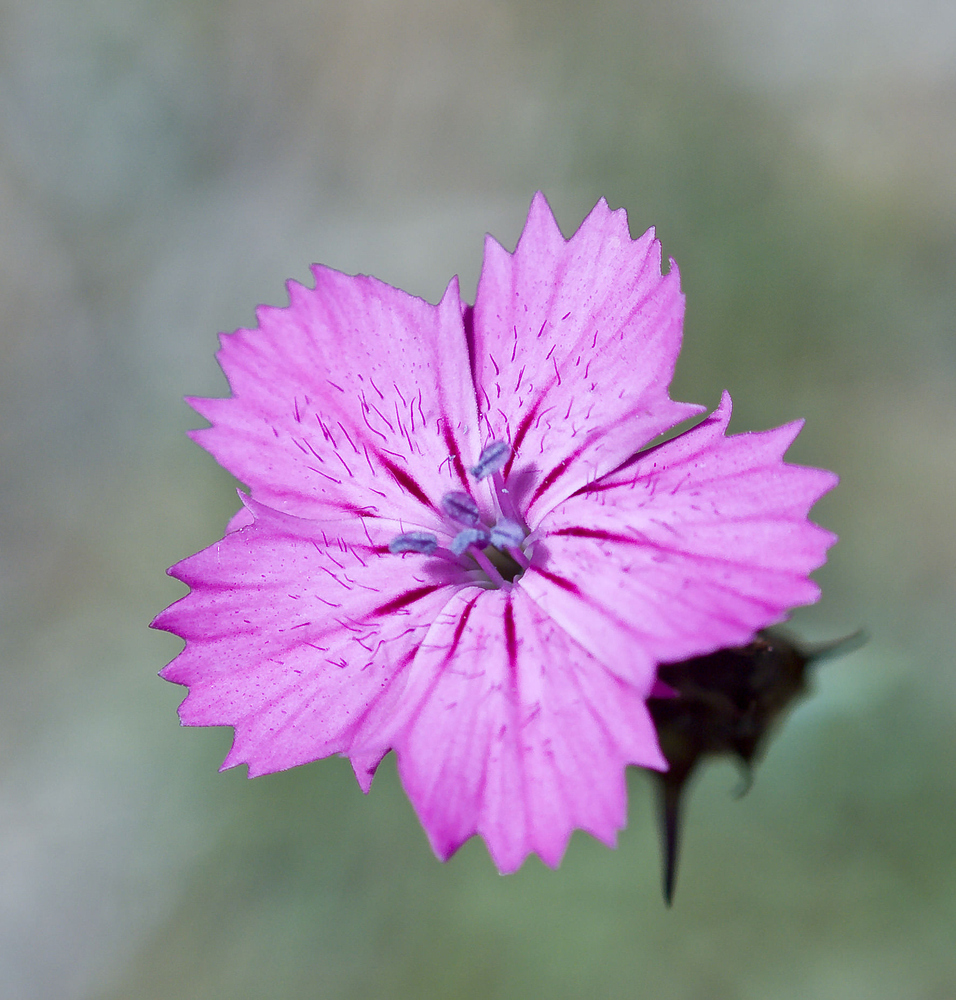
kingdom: Plantae
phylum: Tracheophyta
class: Magnoliopsida
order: Caryophyllales
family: Caryophyllaceae
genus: Dianthus
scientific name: Dianthus carthusianorum
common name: Carthusian pink
